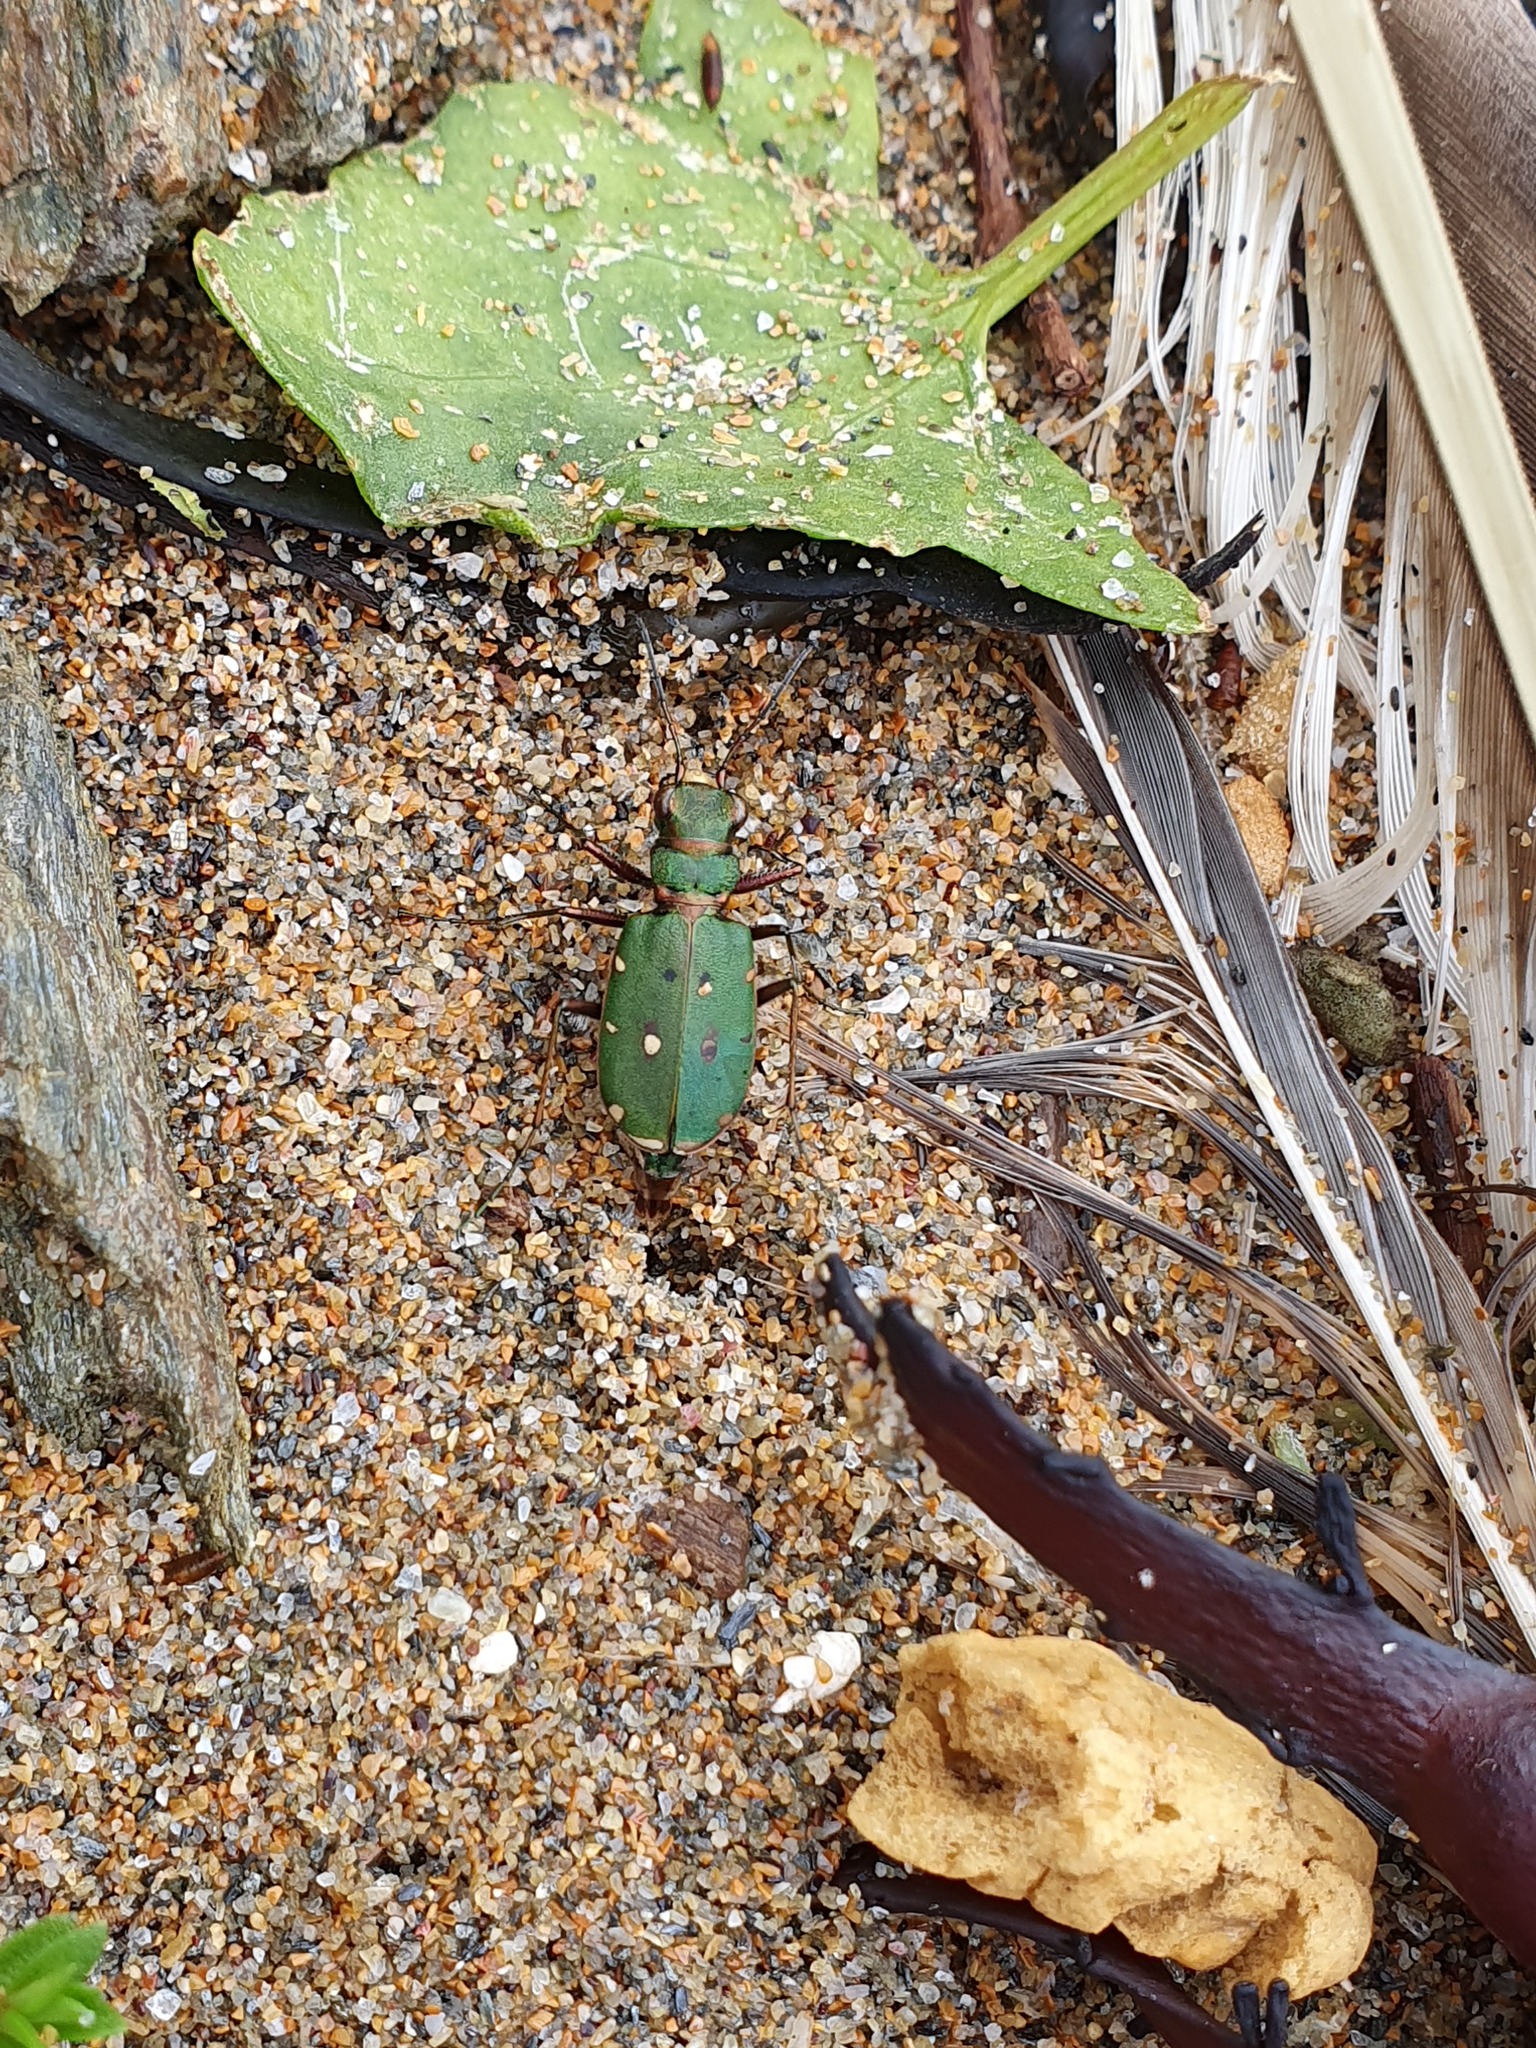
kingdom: Animalia
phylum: Arthropoda
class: Insecta
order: Coleoptera
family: Carabidae
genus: Cicindela
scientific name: Cicindela campestris
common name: Common tiger beetle
